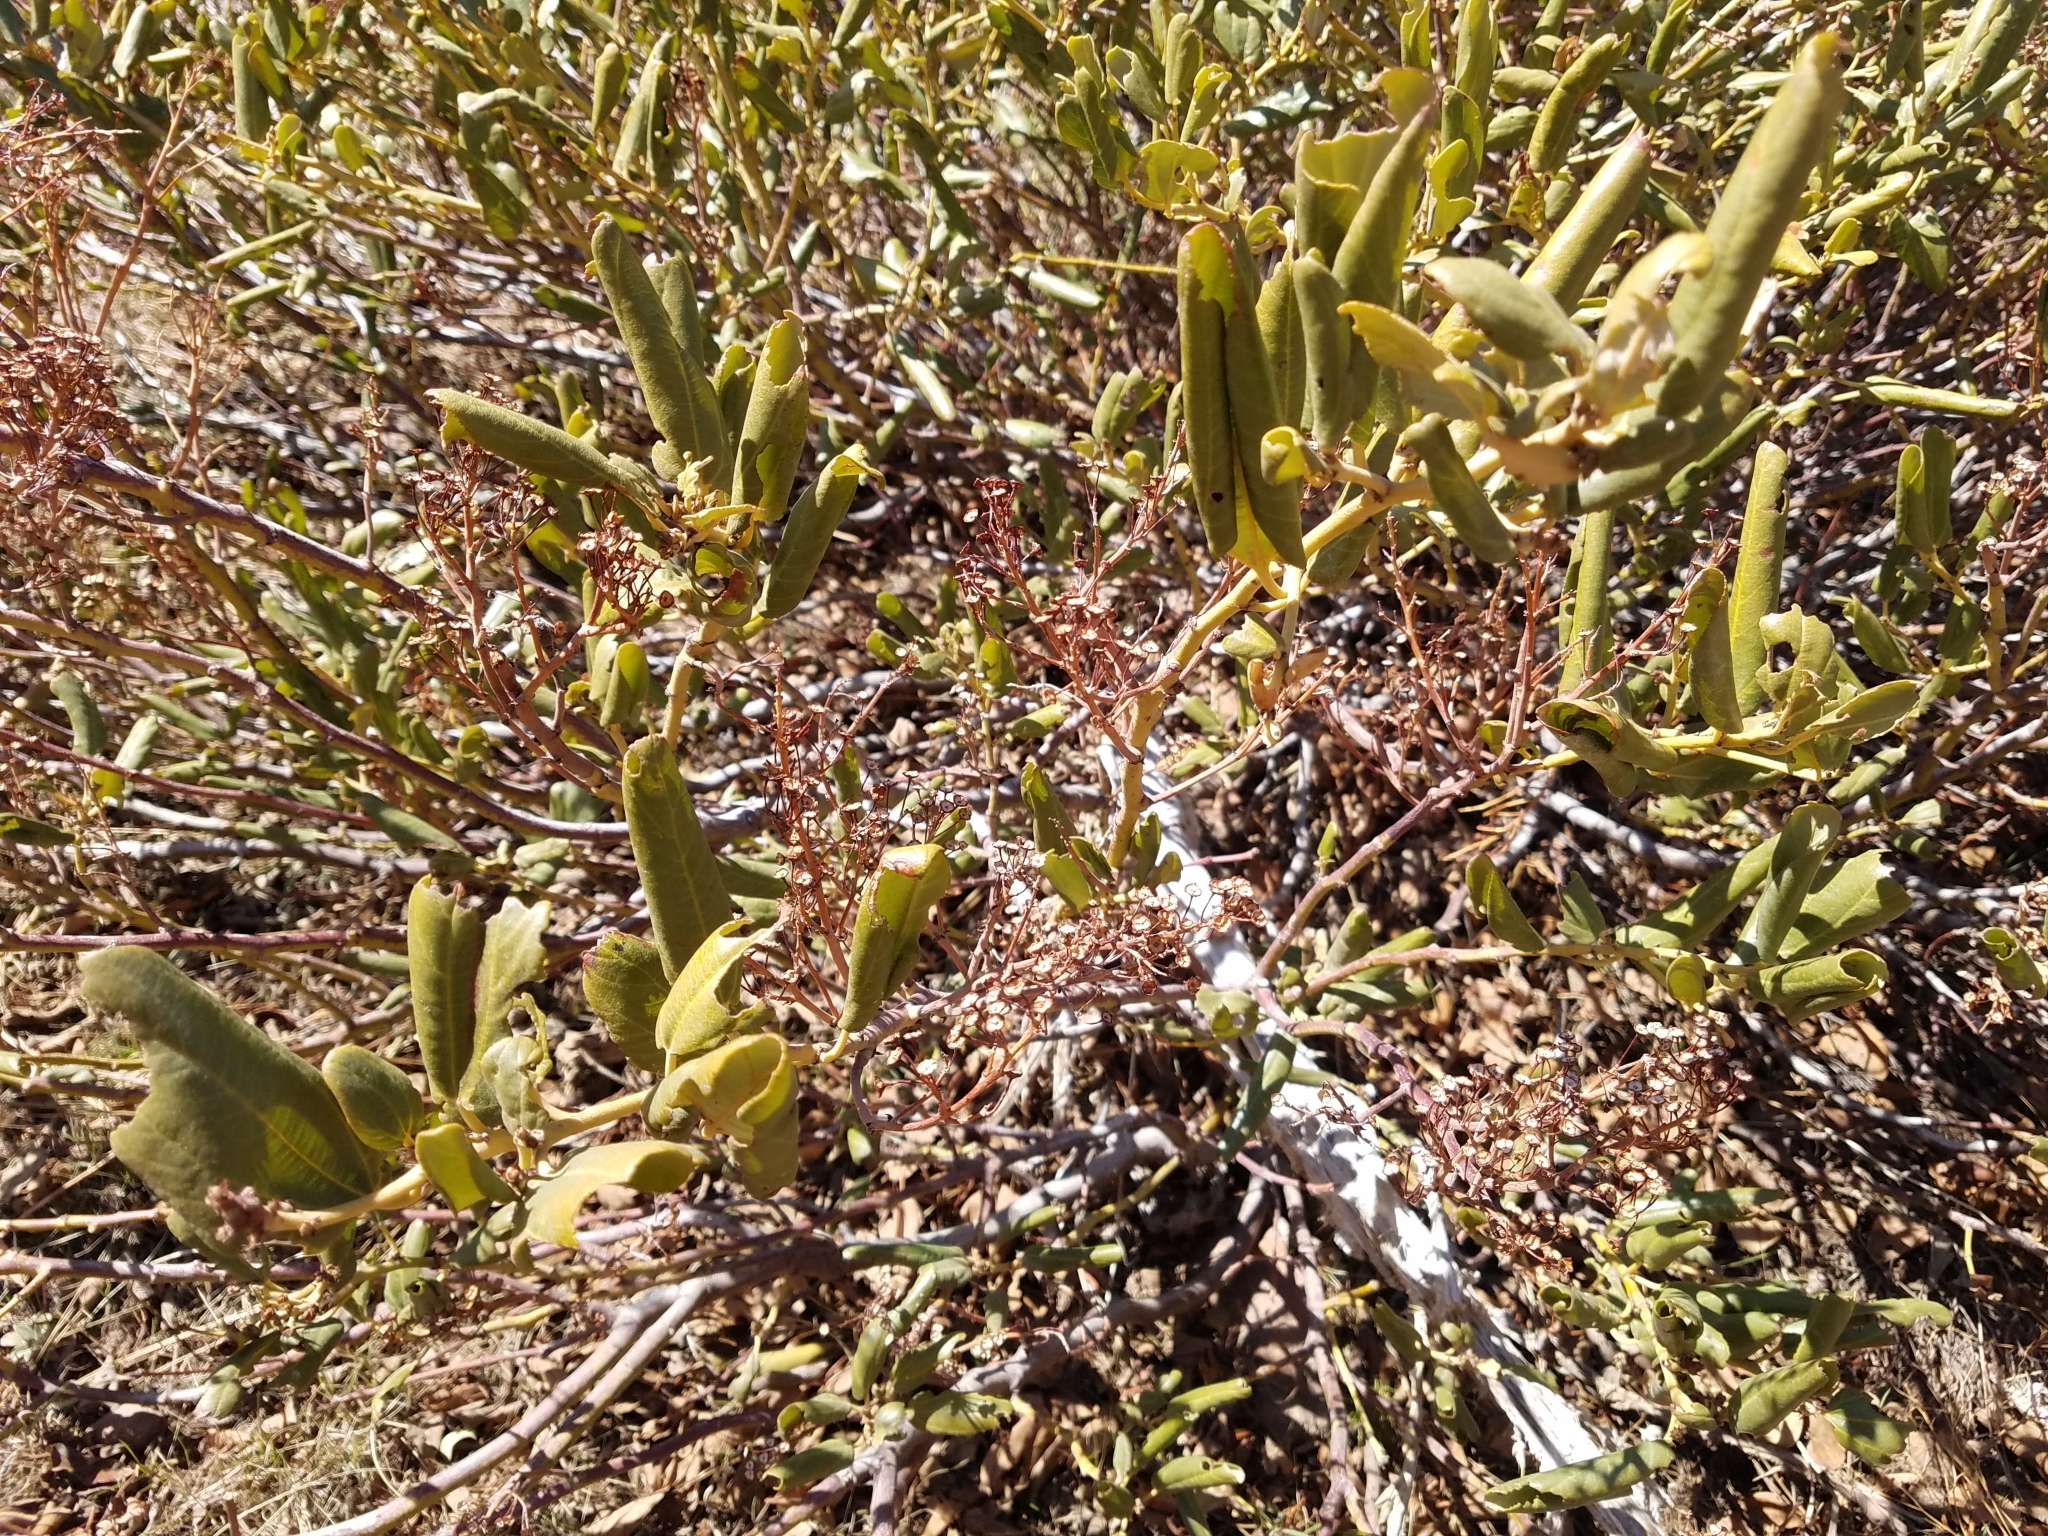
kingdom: Plantae
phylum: Tracheophyta
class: Magnoliopsida
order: Rosales
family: Rhamnaceae
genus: Ceanothus
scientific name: Ceanothus velutinus
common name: Snowbrush
